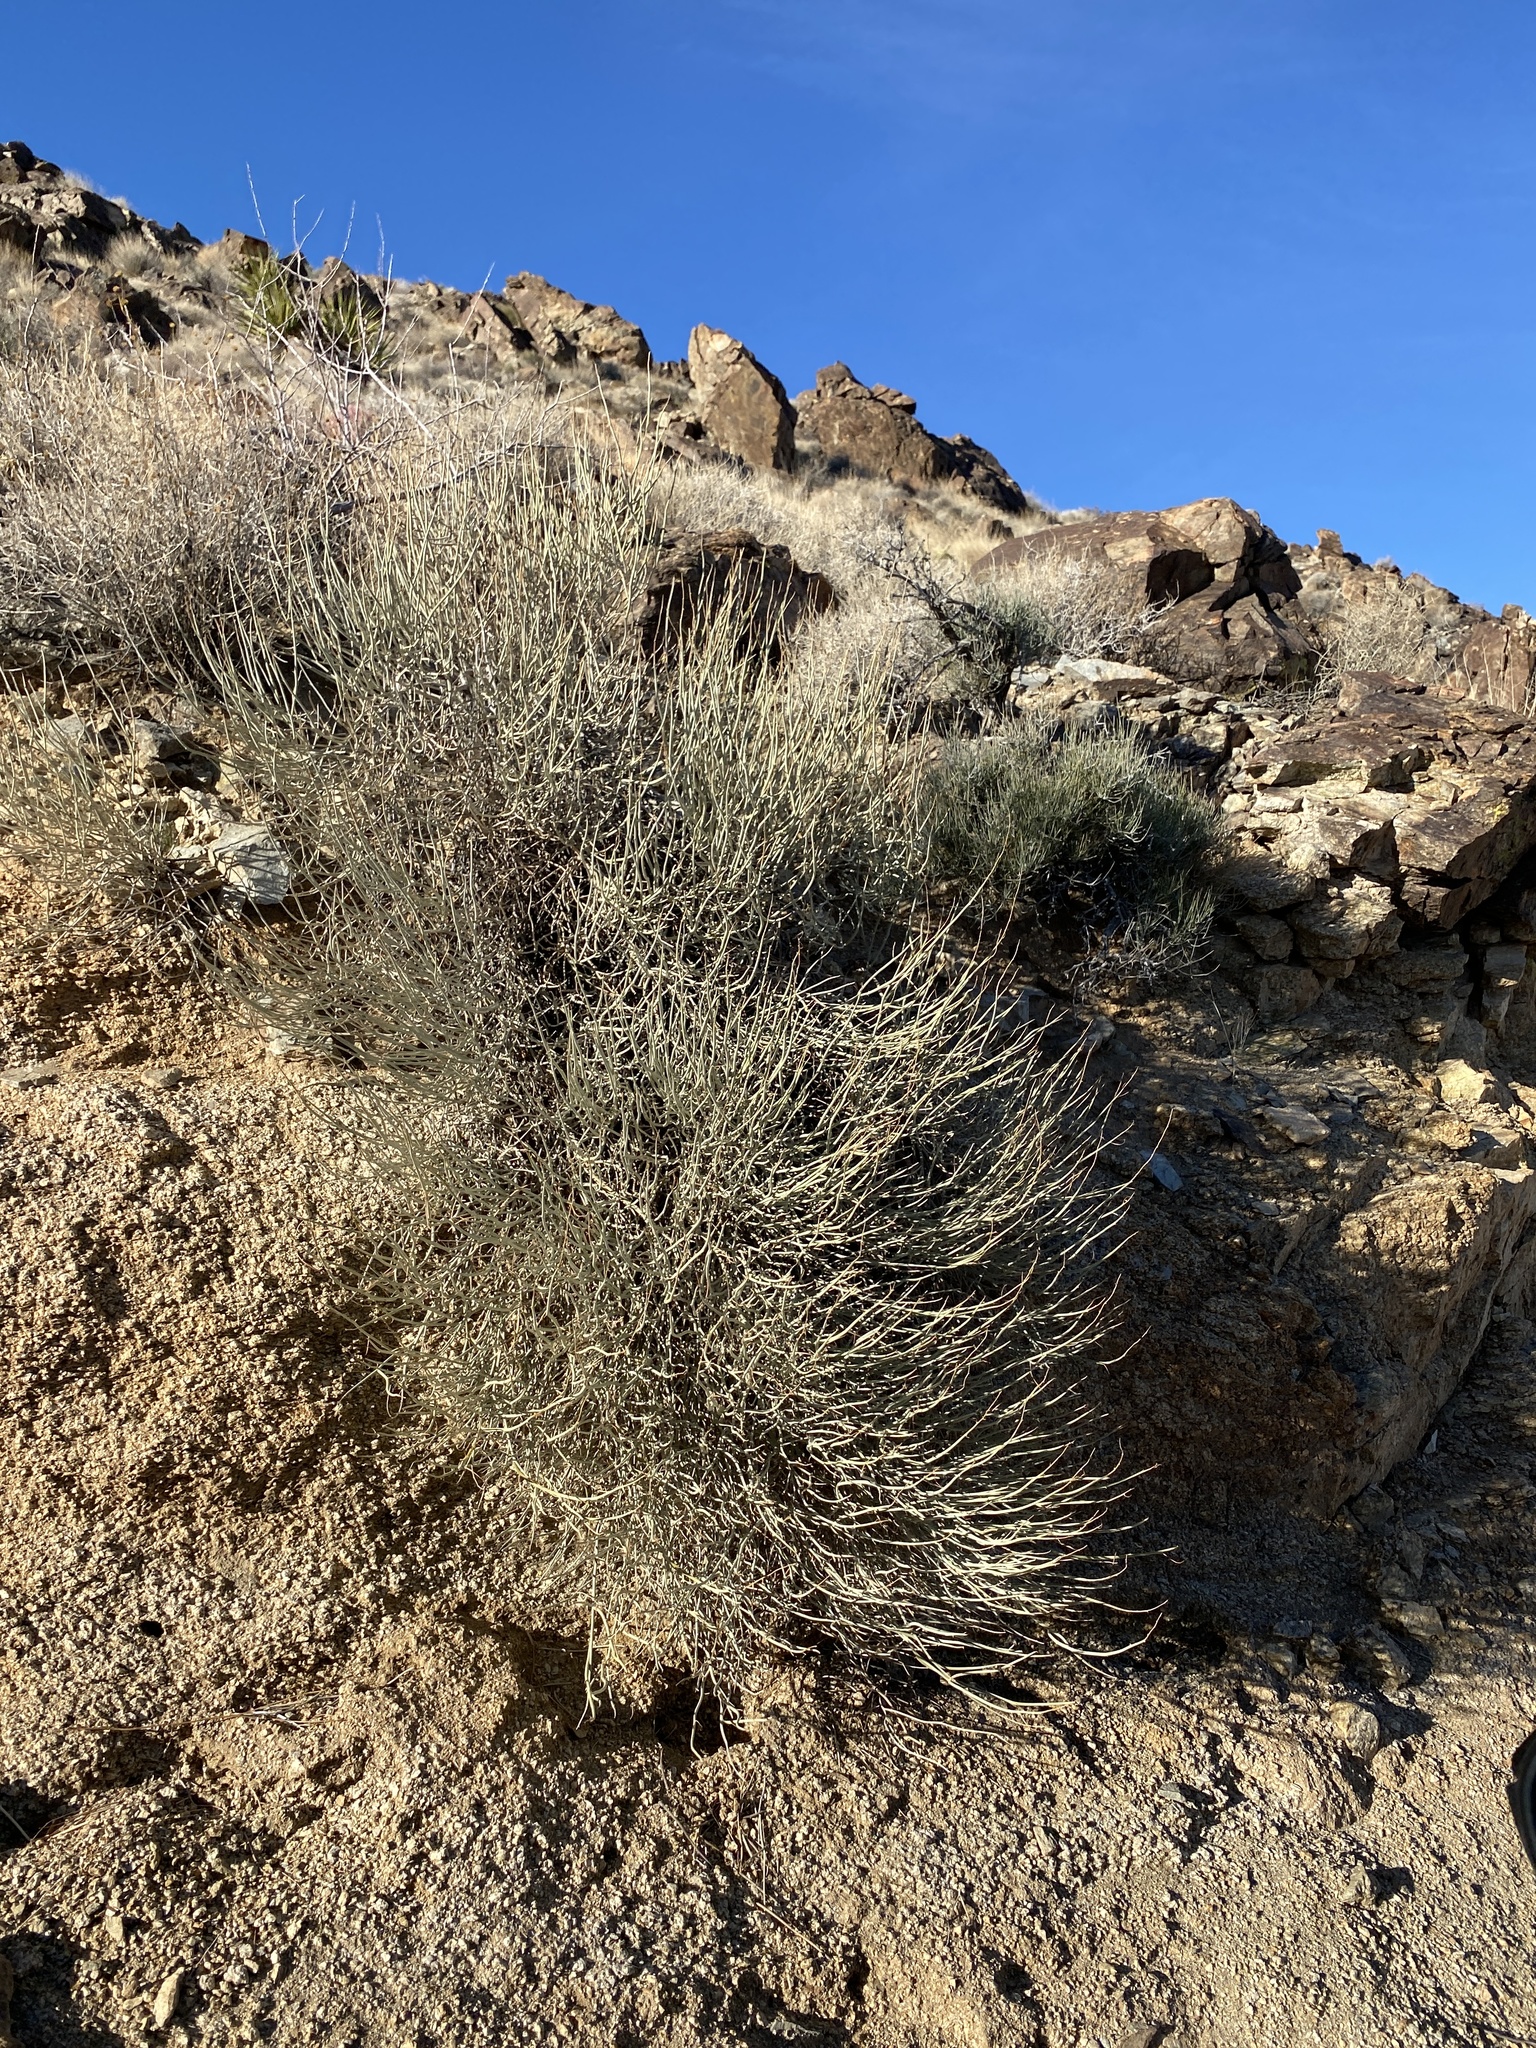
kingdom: Plantae
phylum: Tracheophyta
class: Magnoliopsida
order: Fabales
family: Fabaceae
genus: Senna
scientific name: Senna armata
